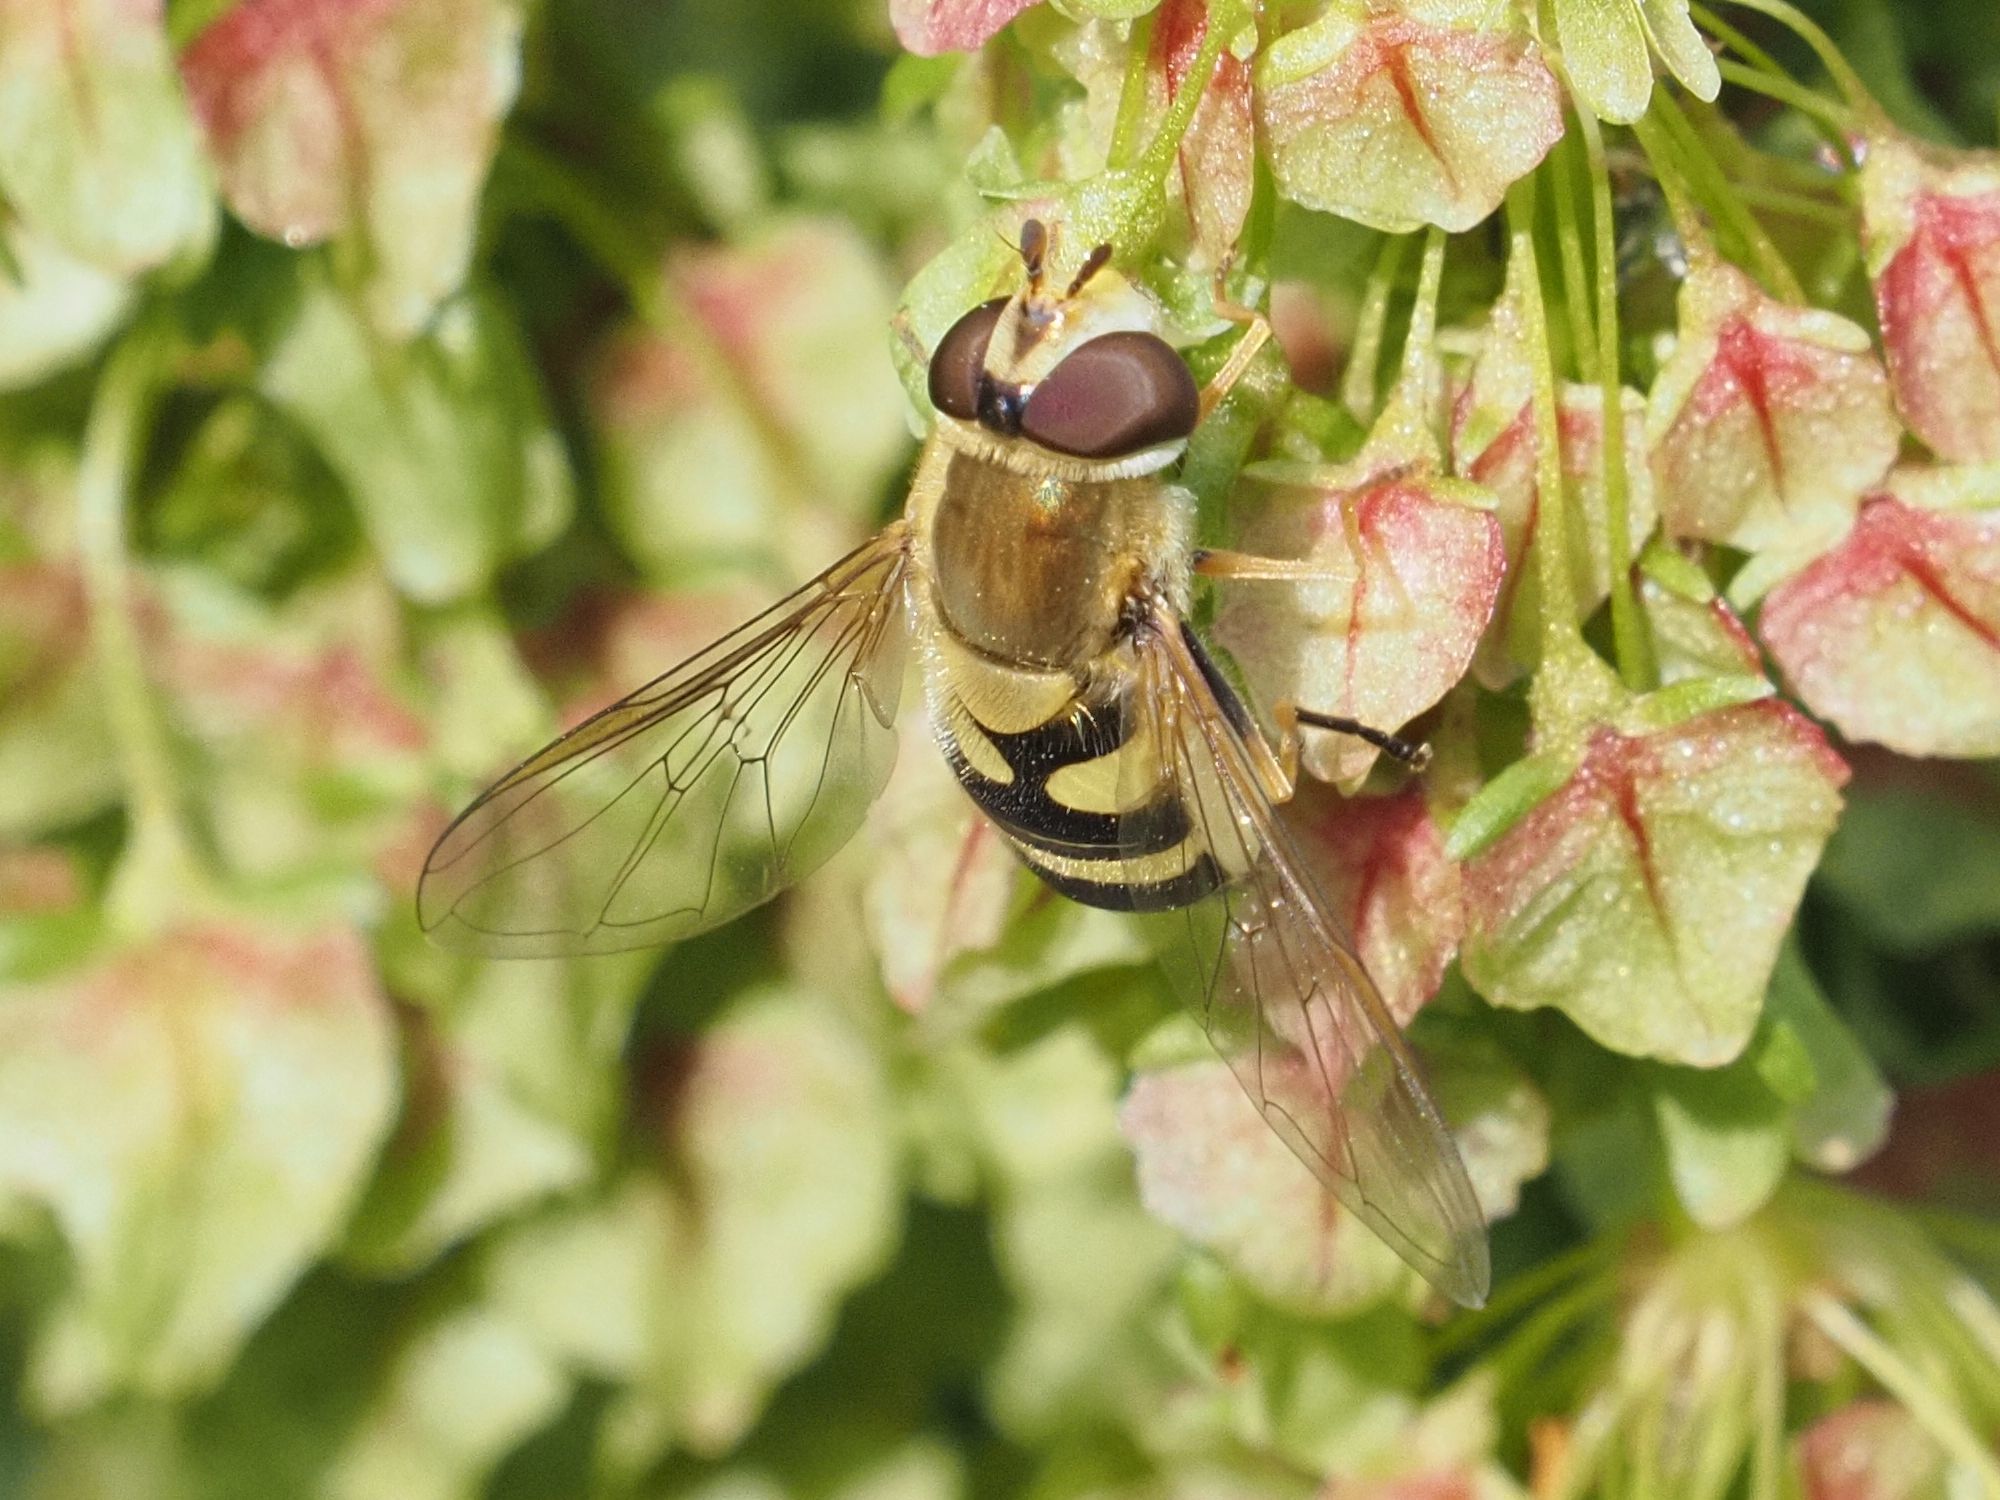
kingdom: Animalia
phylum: Arthropoda
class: Insecta
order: Diptera
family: Syrphidae
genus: Syrphus
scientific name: Syrphus
